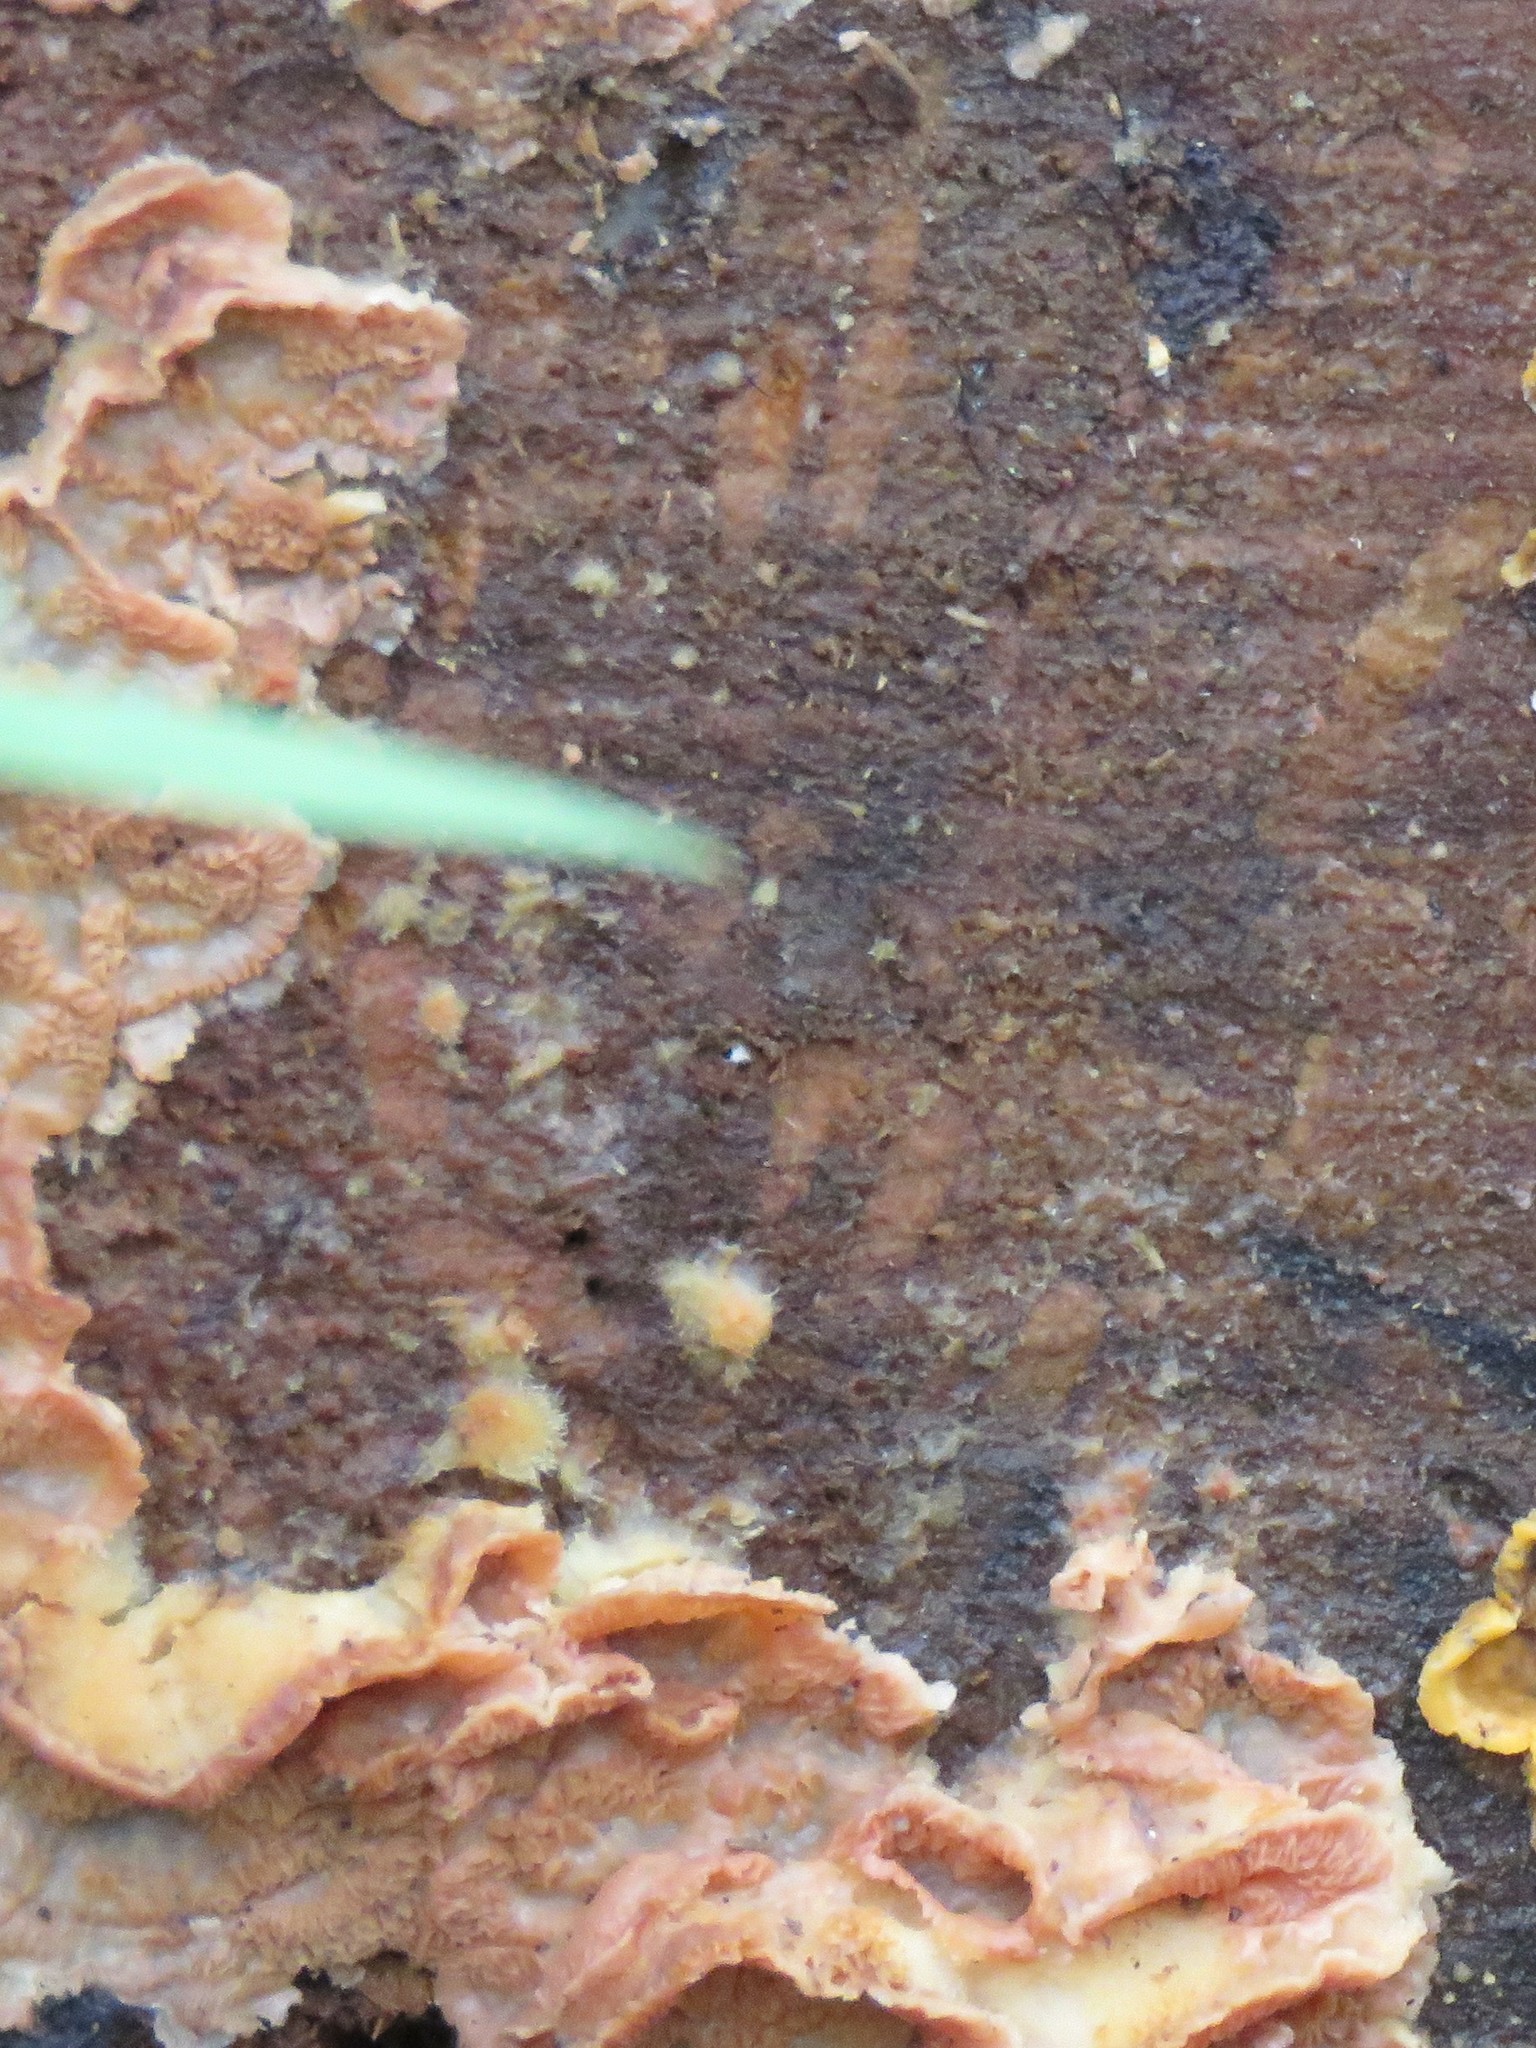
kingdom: Fungi
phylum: Basidiomycota
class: Agaricomycetes
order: Polyporales
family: Meruliaceae
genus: Phlebia
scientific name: Phlebia tremellosa
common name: Jelly rot
